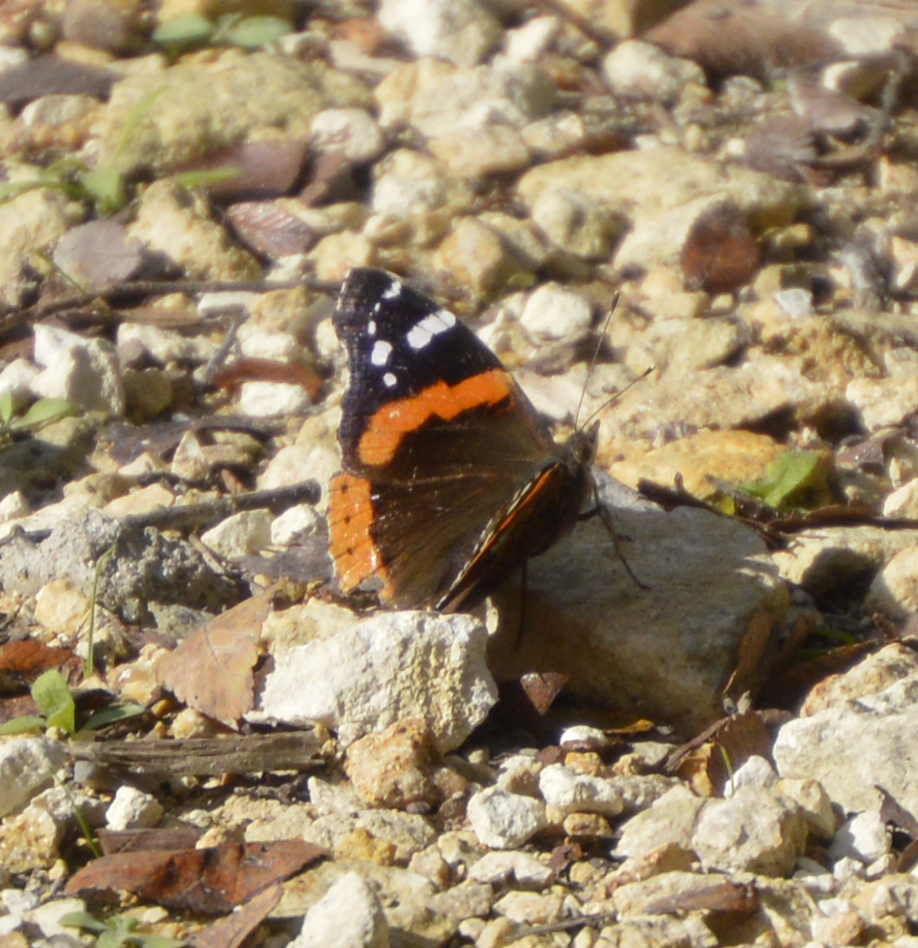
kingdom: Animalia
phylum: Arthropoda
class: Insecta
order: Lepidoptera
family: Nymphalidae
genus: Vanessa
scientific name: Vanessa atalanta
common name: Red admiral
